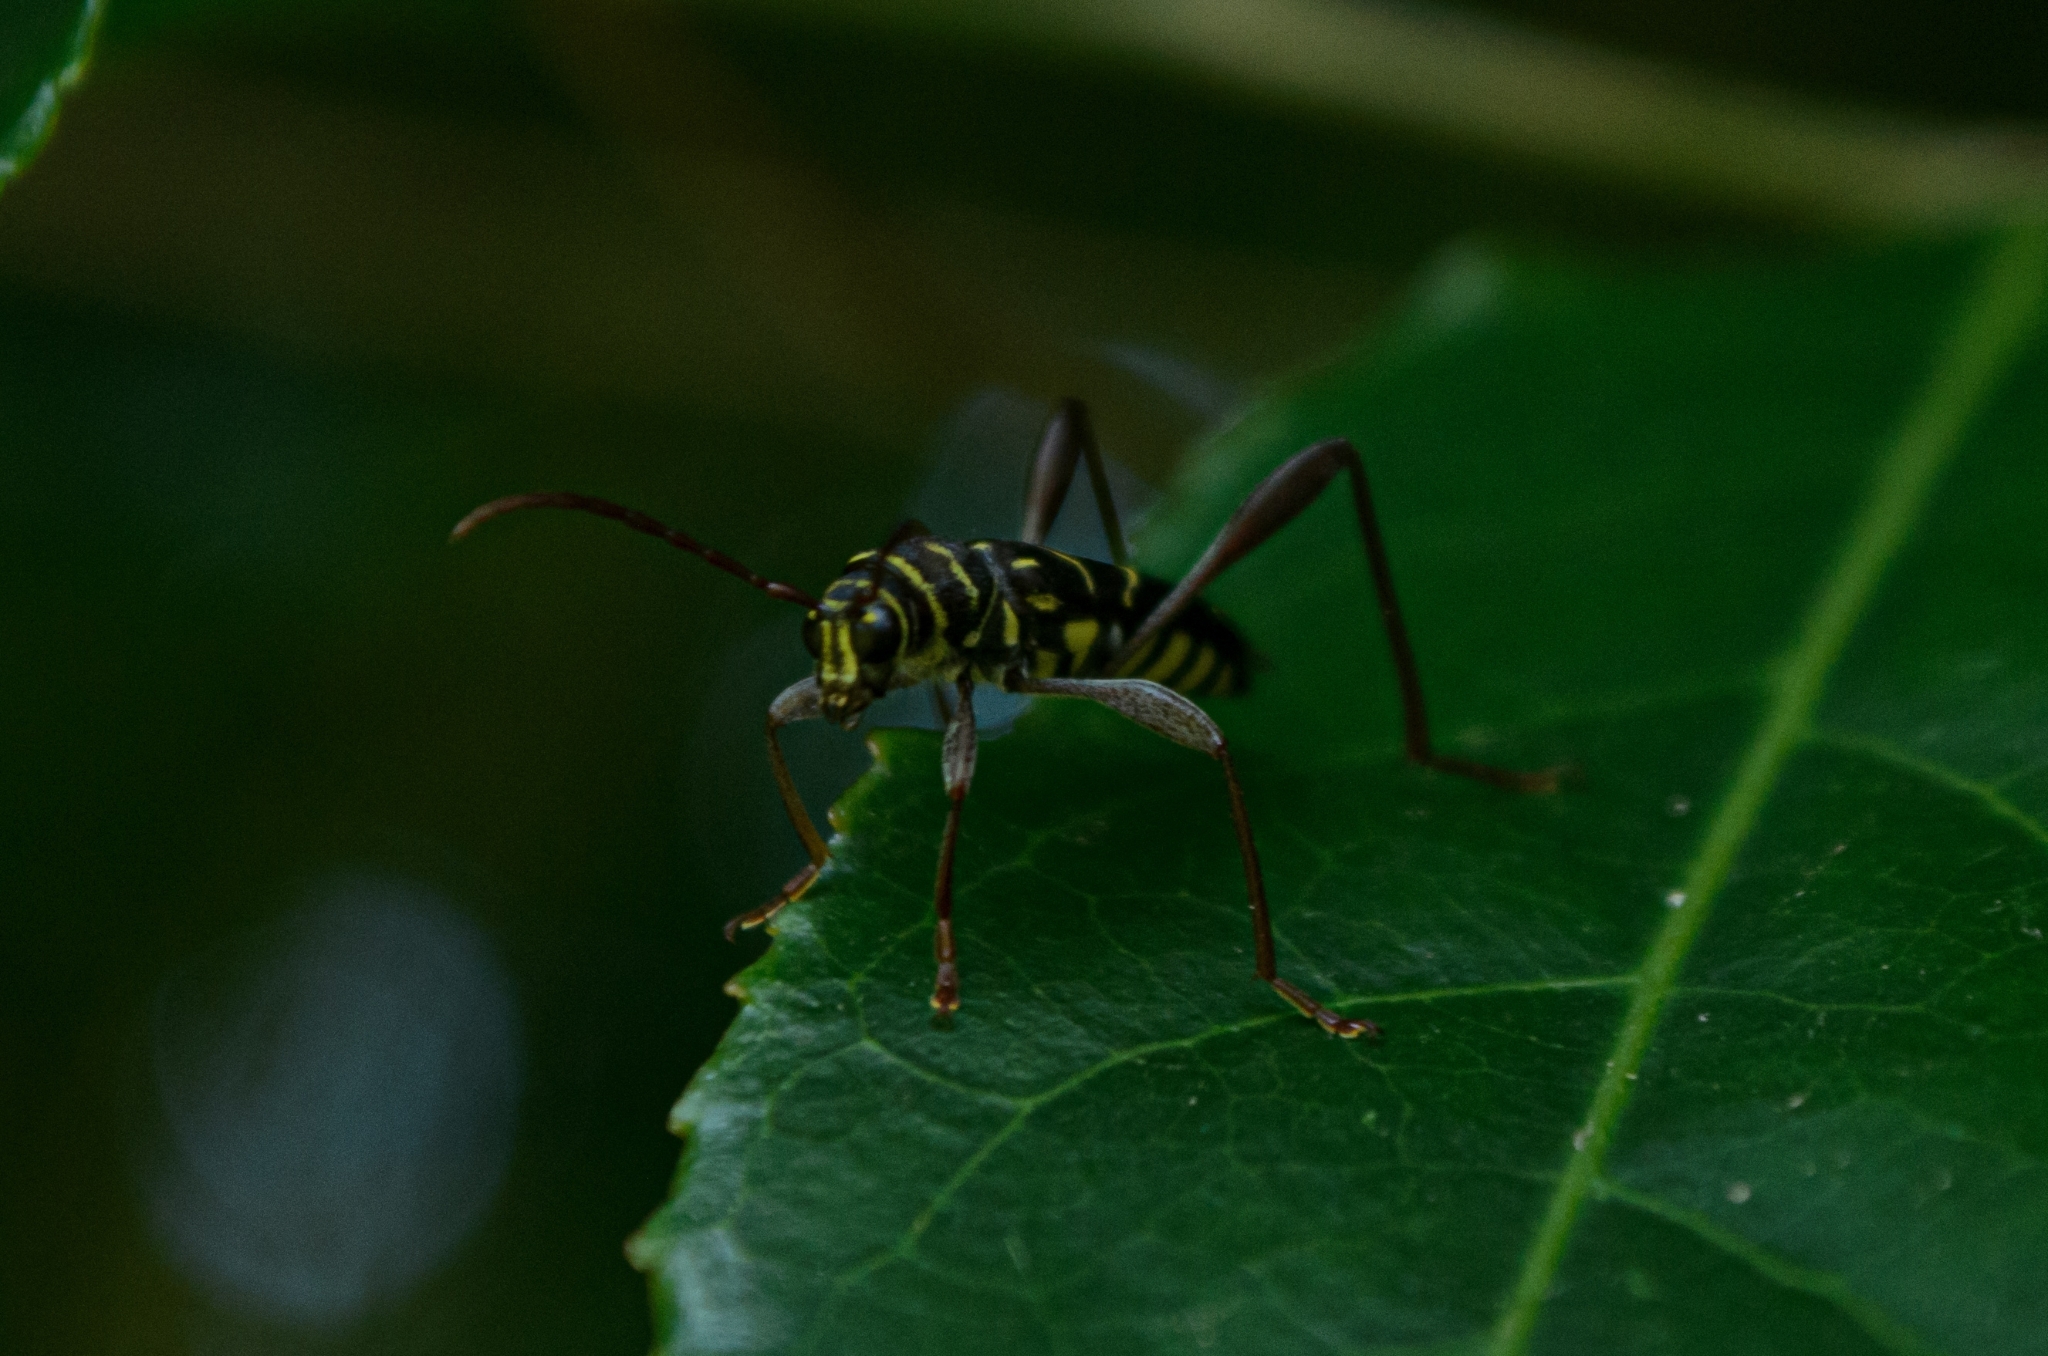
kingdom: Animalia
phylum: Arthropoda
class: Insecta
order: Coleoptera
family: Cerambycidae
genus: Cotyclytus
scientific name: Cotyclytus curvatus
